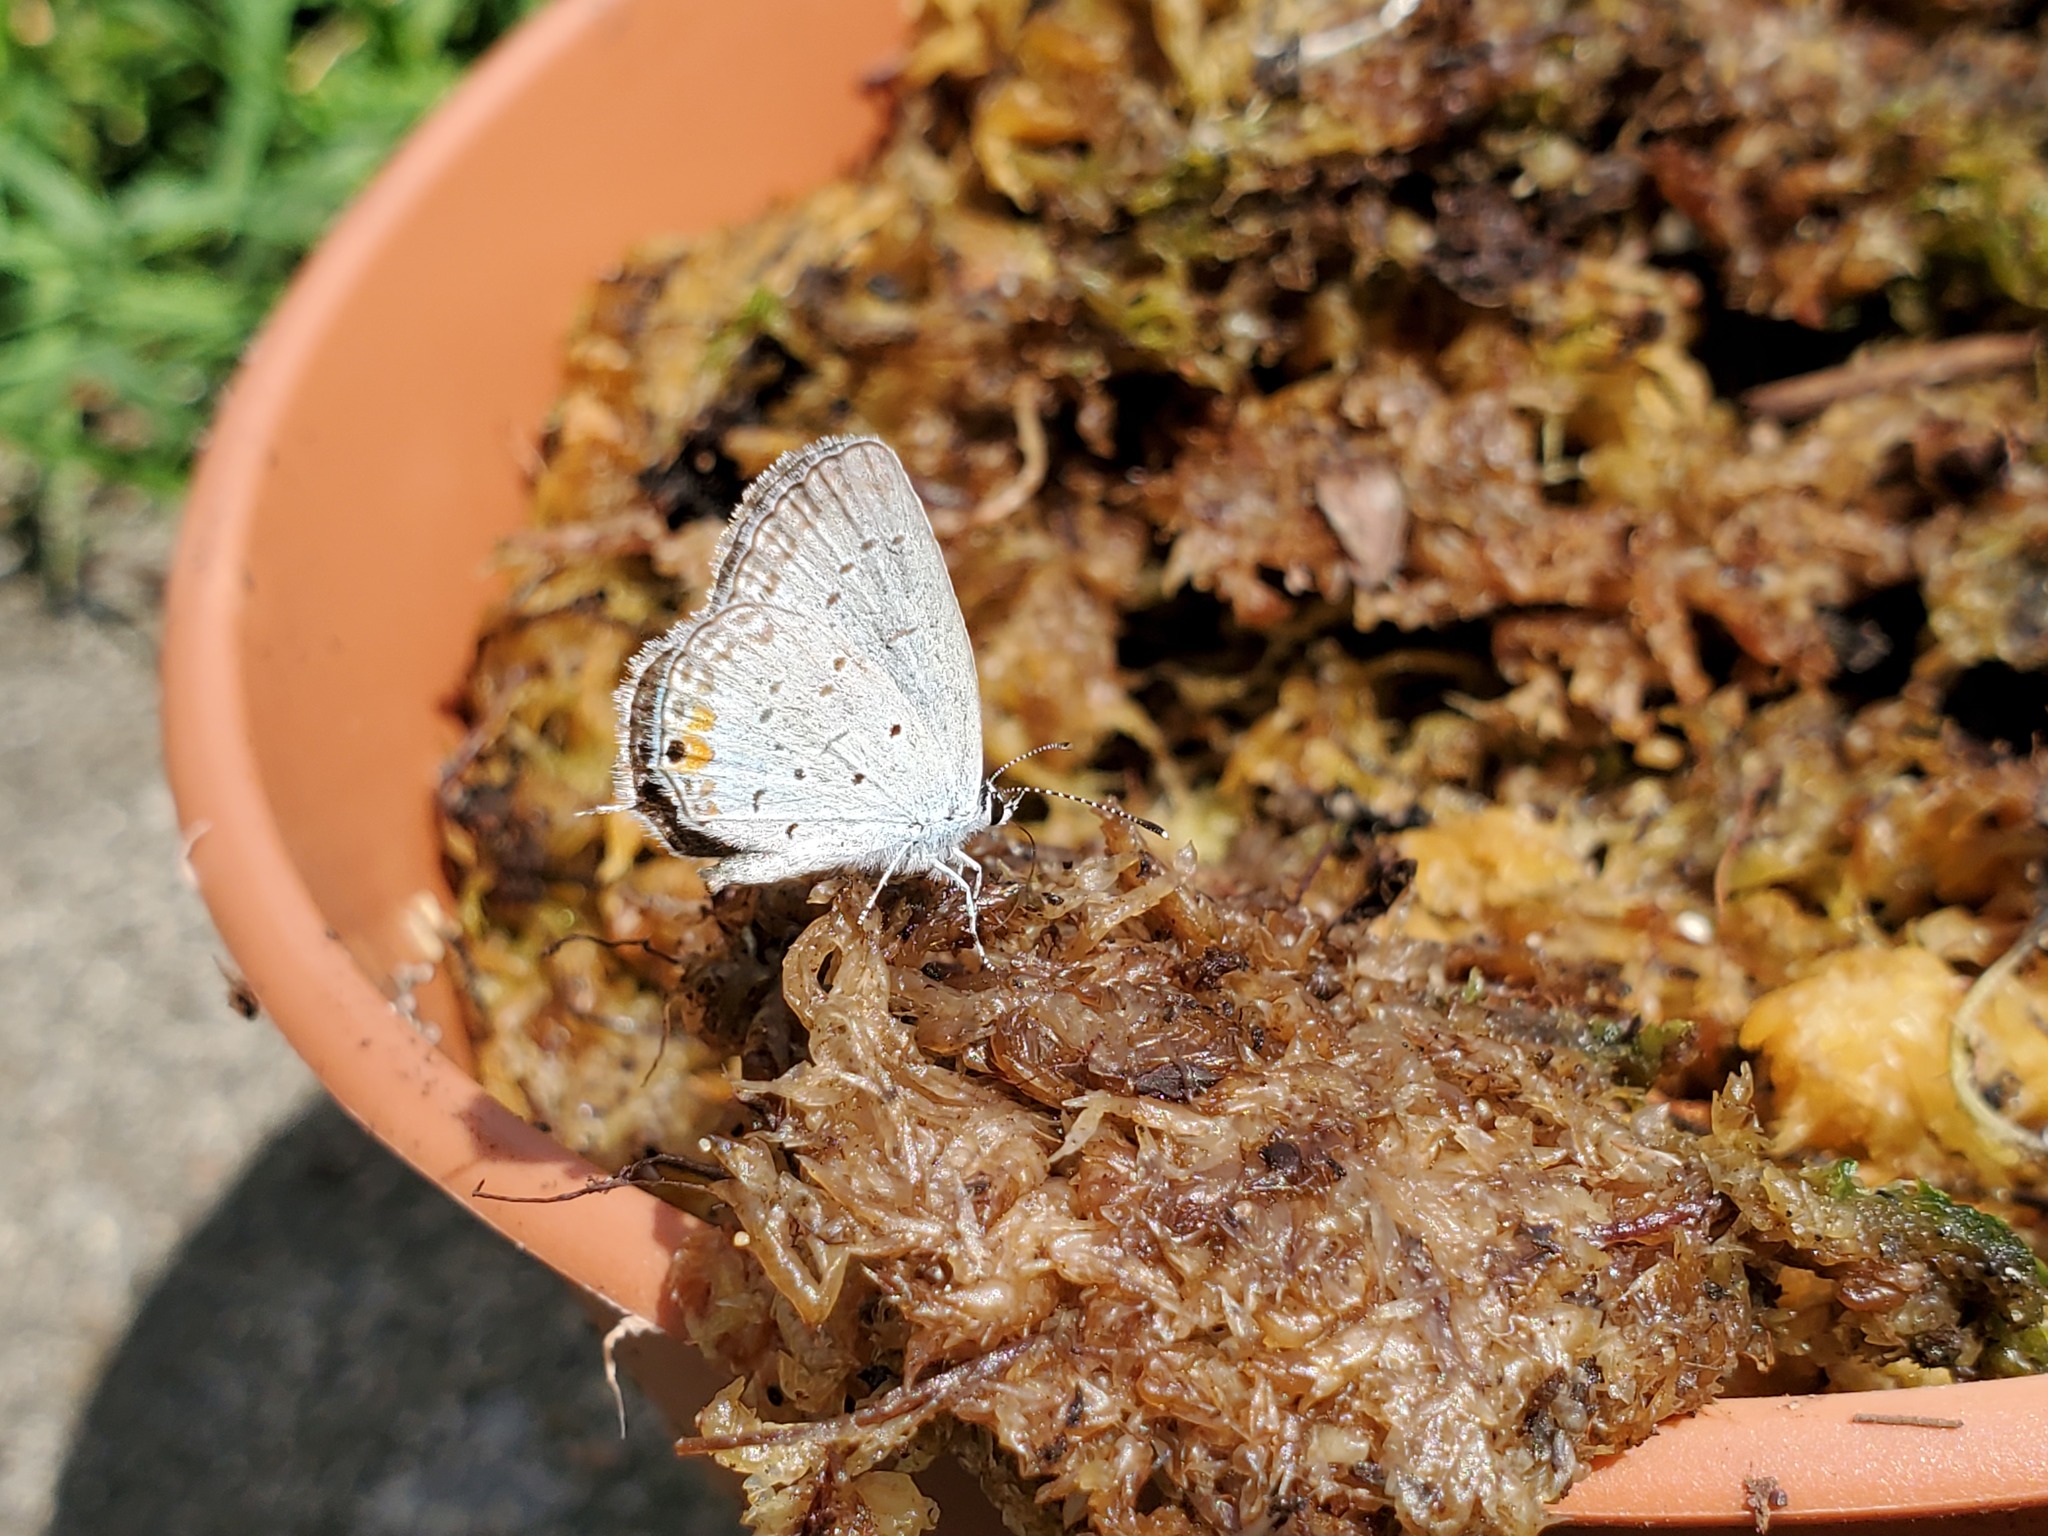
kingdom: Animalia
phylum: Arthropoda
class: Insecta
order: Lepidoptera
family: Lycaenidae
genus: Elkalyce
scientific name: Elkalyce comyntas
